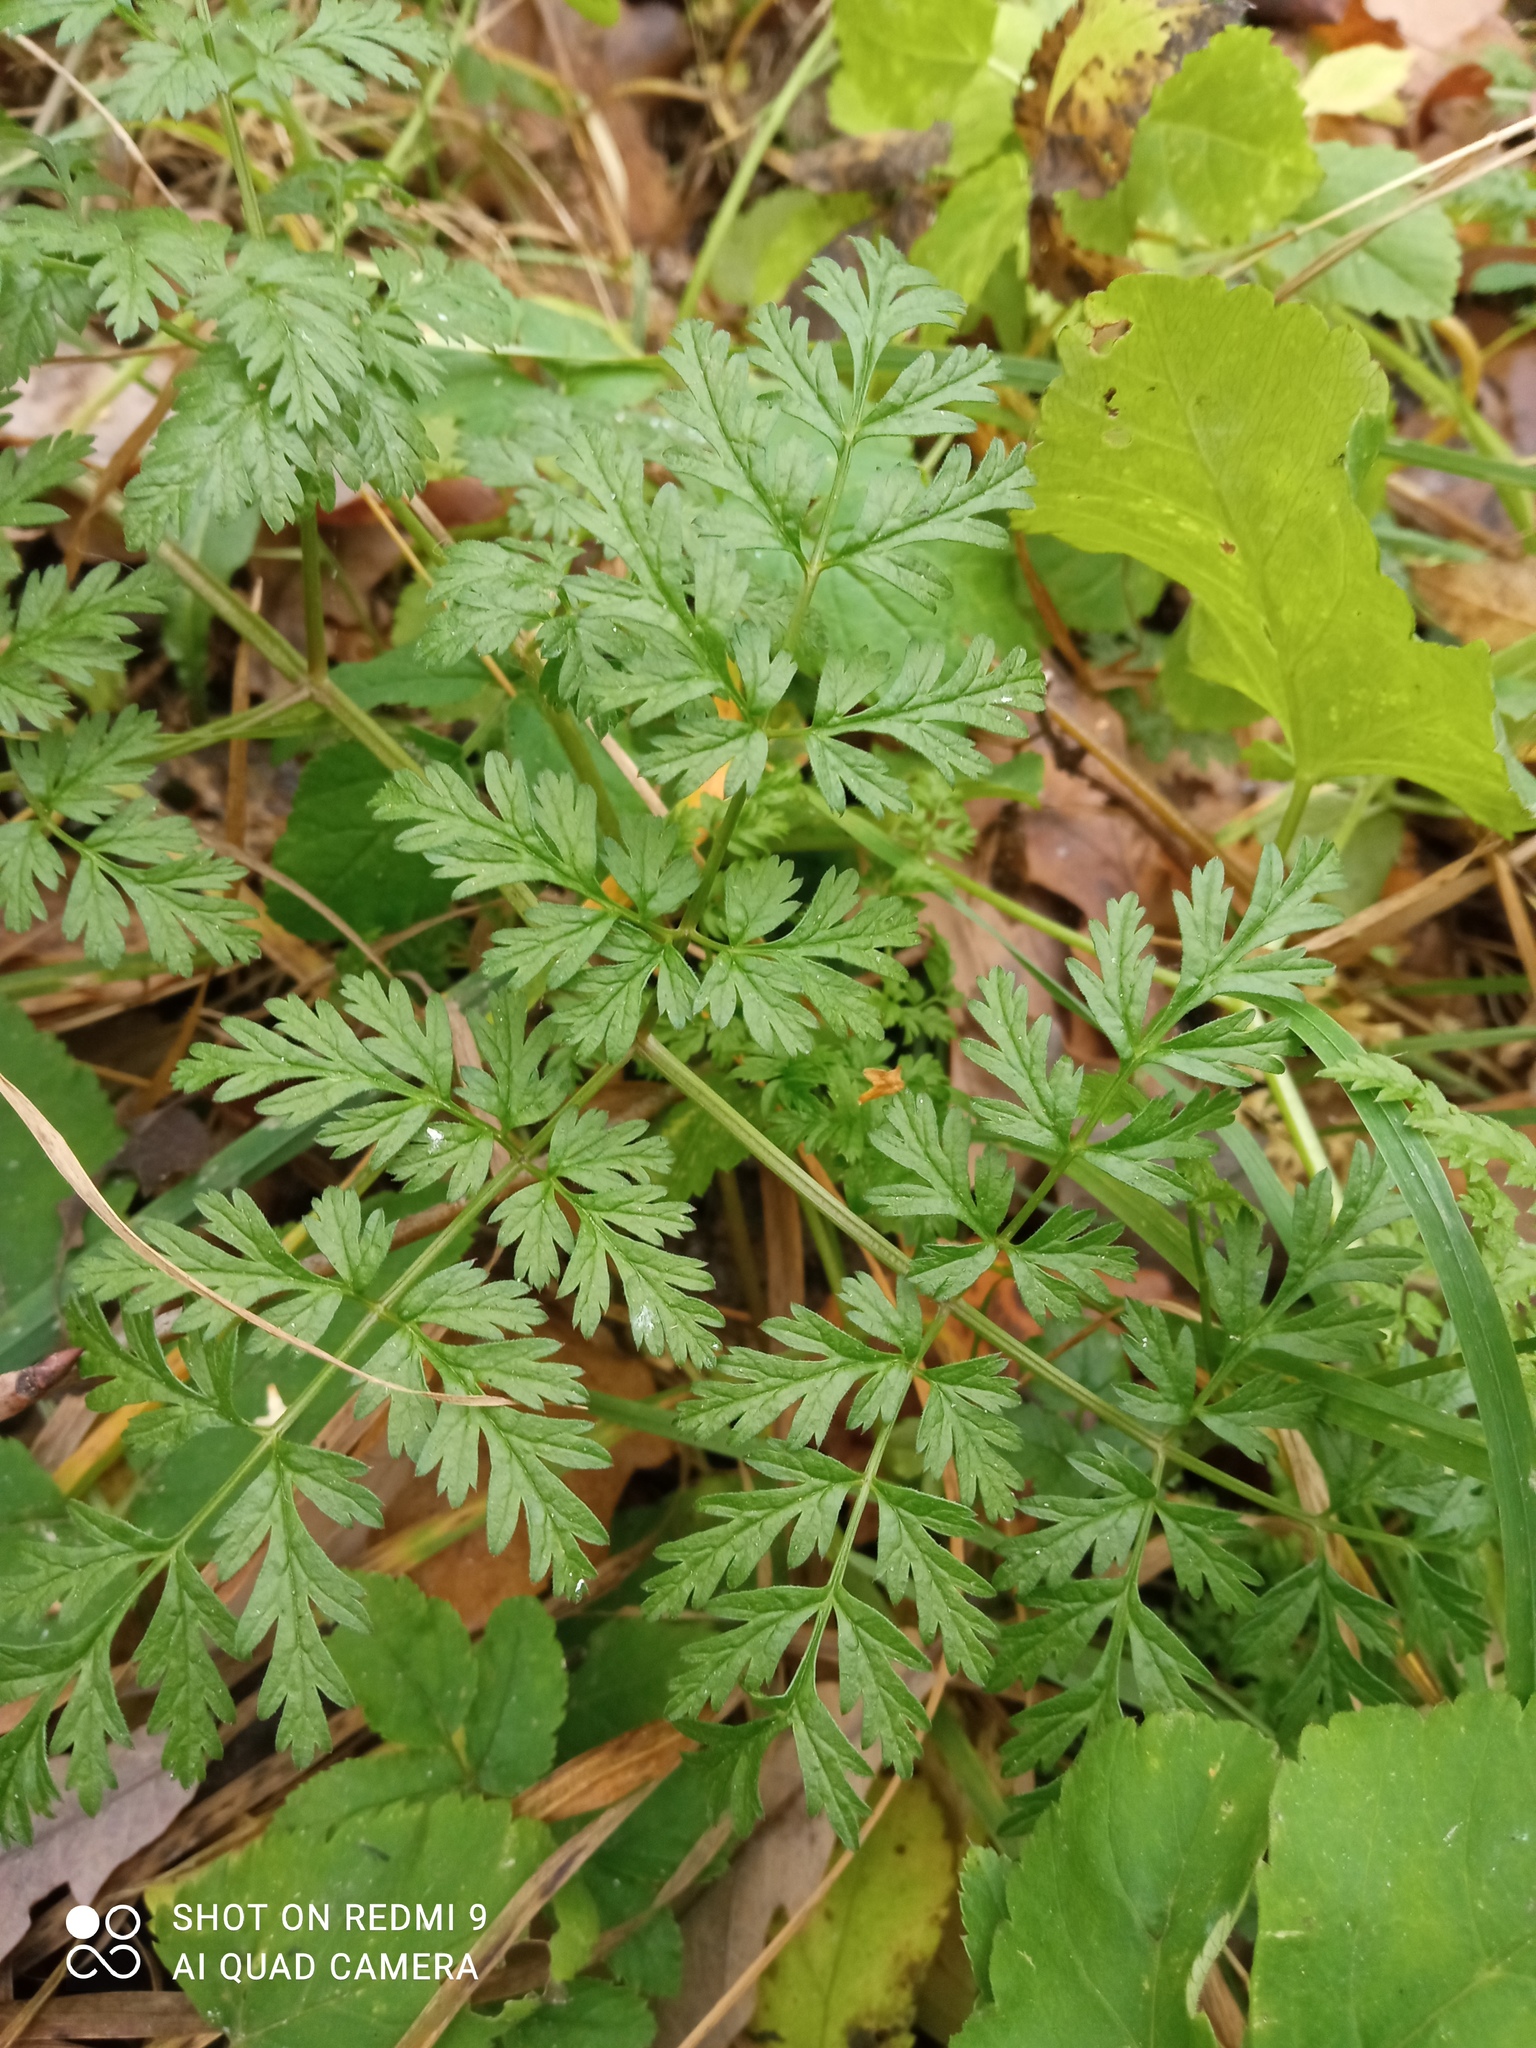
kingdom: Plantae
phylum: Tracheophyta
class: Magnoliopsida
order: Apiales
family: Apiaceae
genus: Anthriscus
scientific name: Anthriscus sylvestris
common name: Cow parsley
